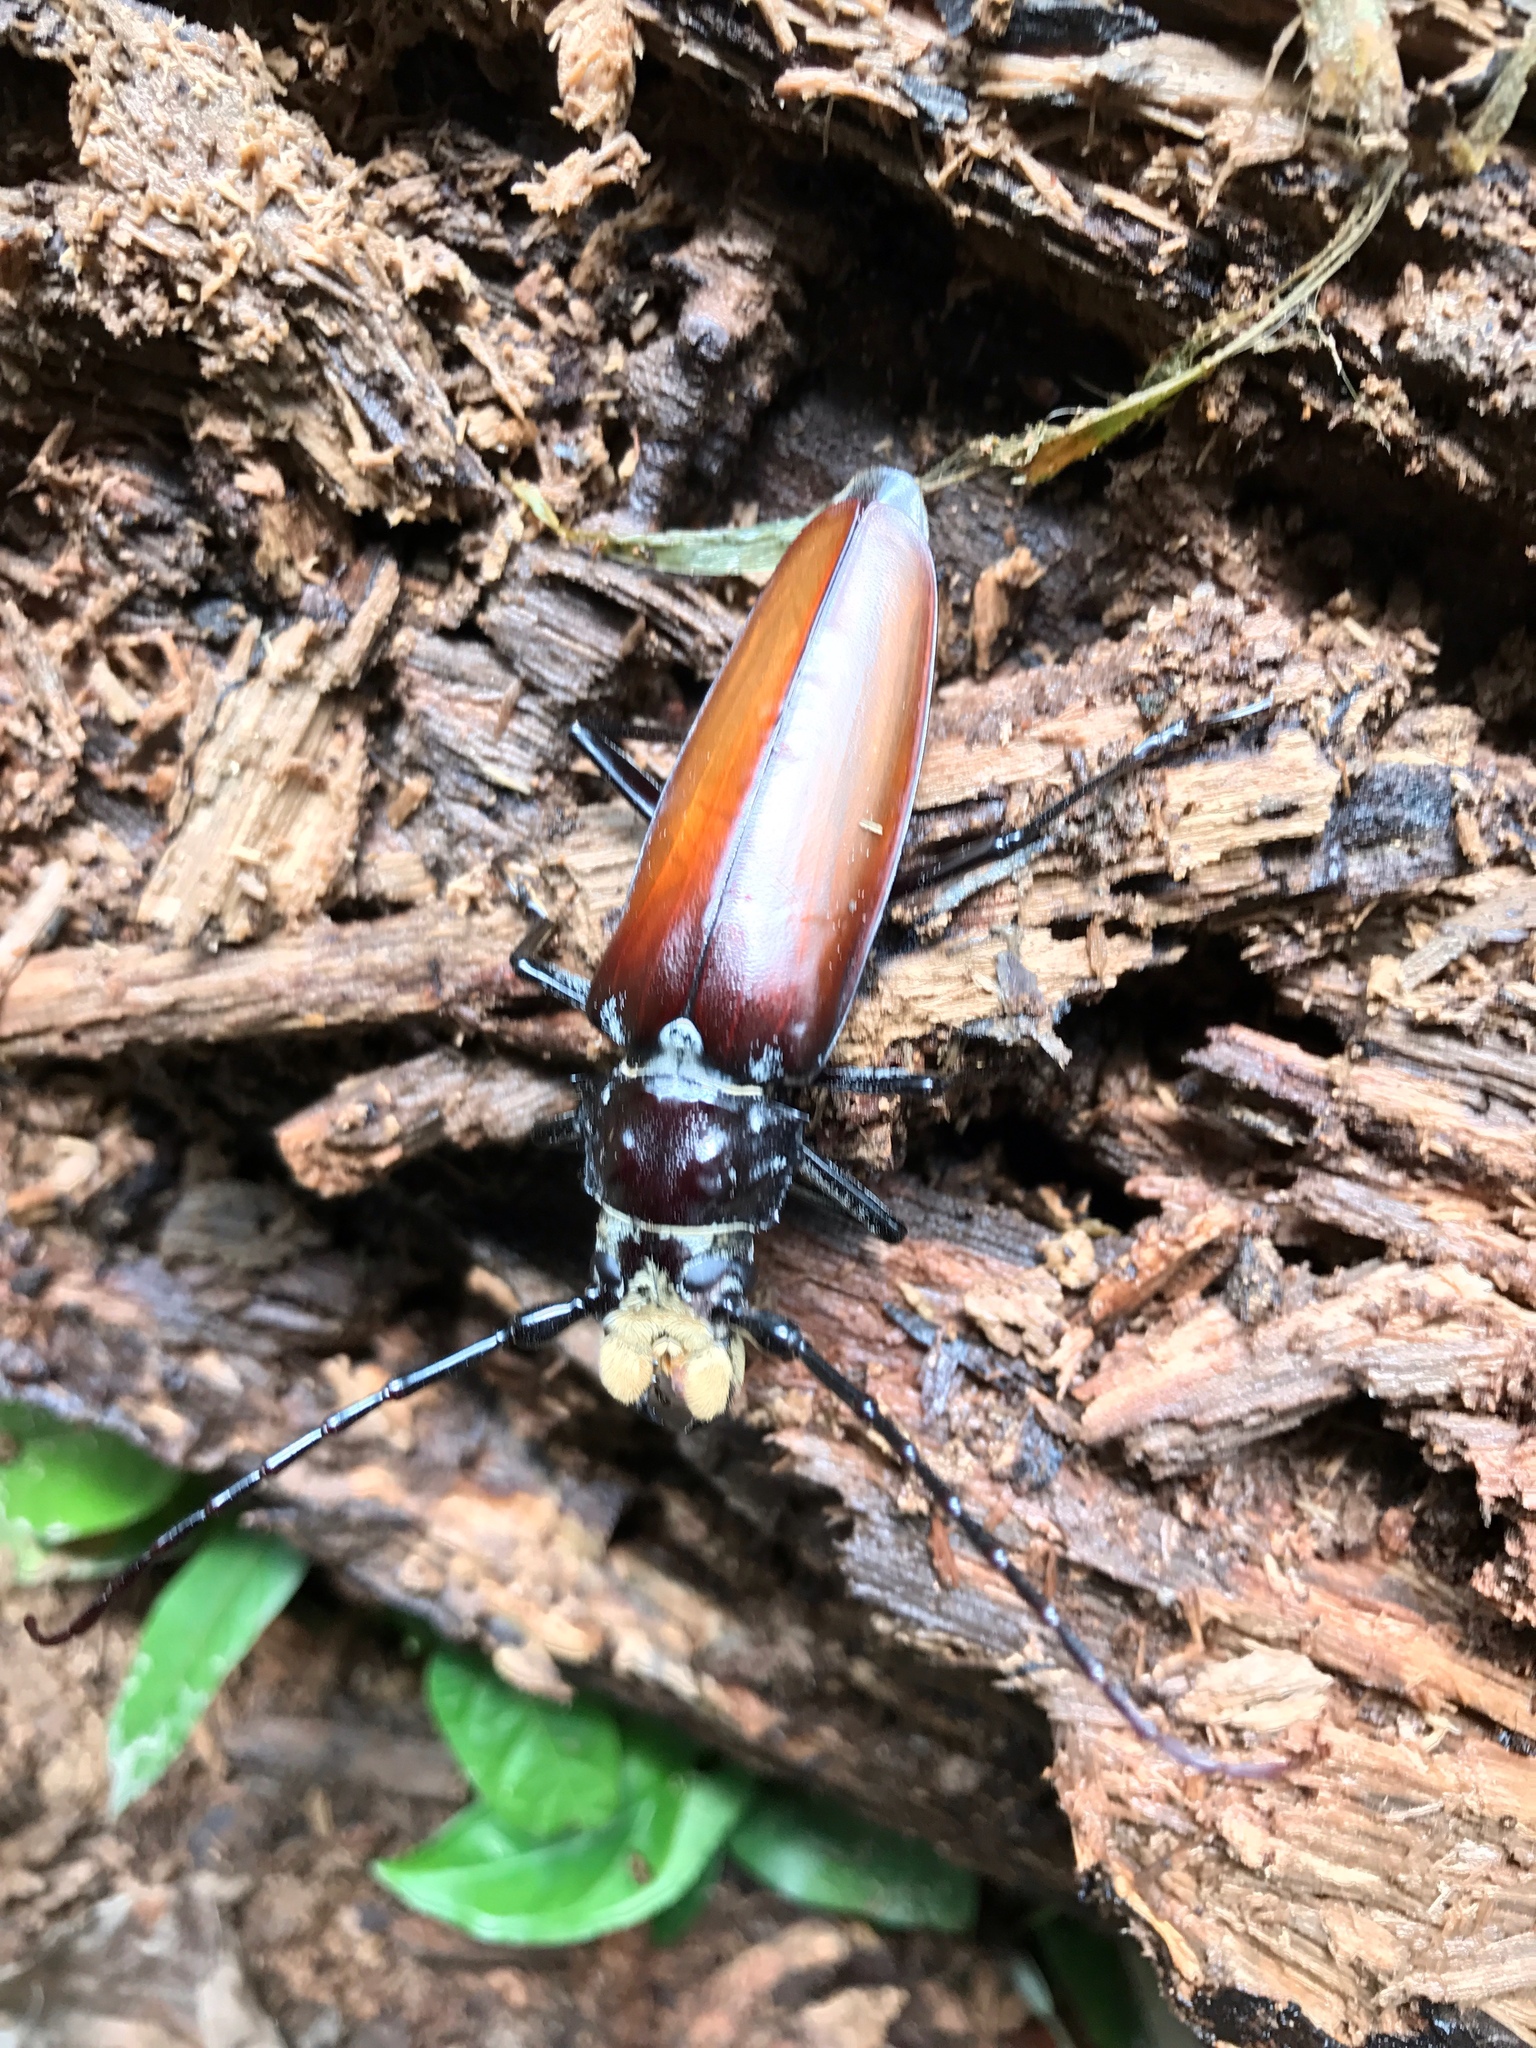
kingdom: Animalia
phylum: Arthropoda
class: Insecta
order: Coleoptera
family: Cerambycidae
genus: Callipogon
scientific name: Callipogon senex
